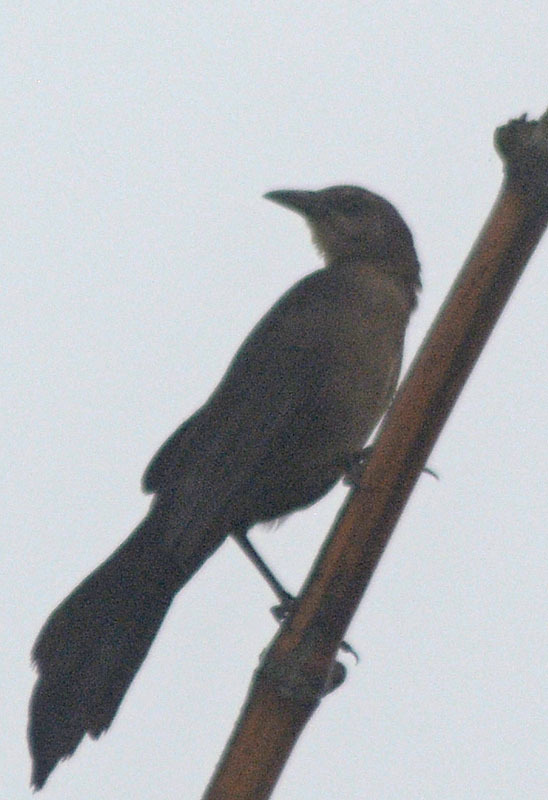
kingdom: Animalia
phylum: Chordata
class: Aves
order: Passeriformes
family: Icteridae
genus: Quiscalus
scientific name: Quiscalus mexicanus
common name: Great-tailed grackle
